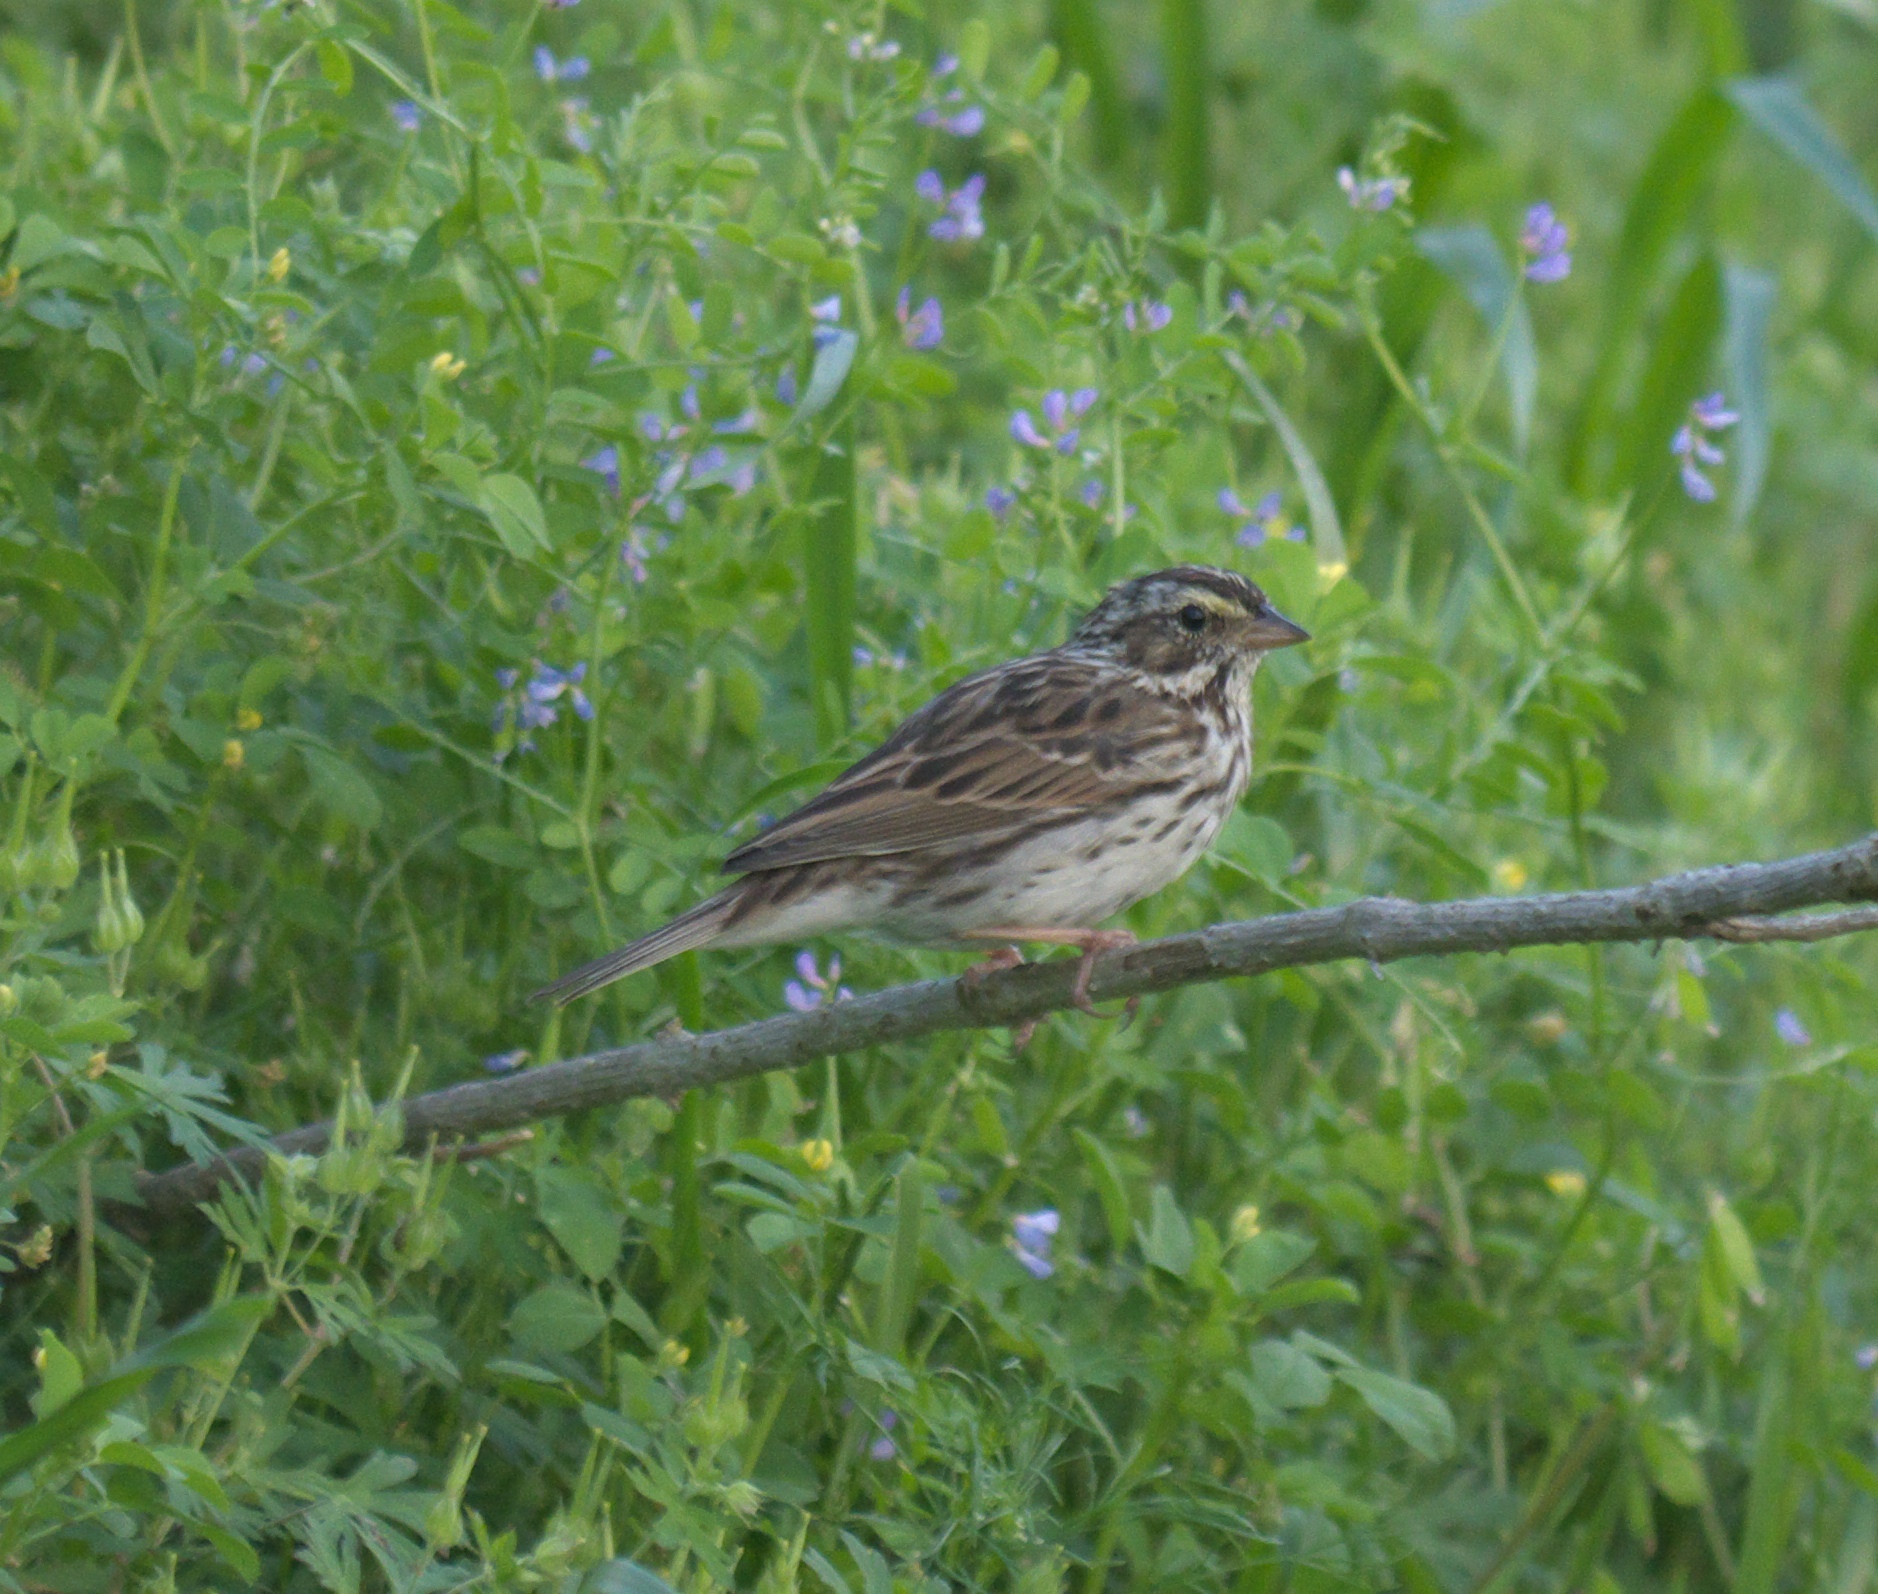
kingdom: Animalia
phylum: Chordata
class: Aves
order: Passeriformes
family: Passerellidae
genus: Passerculus
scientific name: Passerculus sandwichensis
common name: Savannah sparrow
